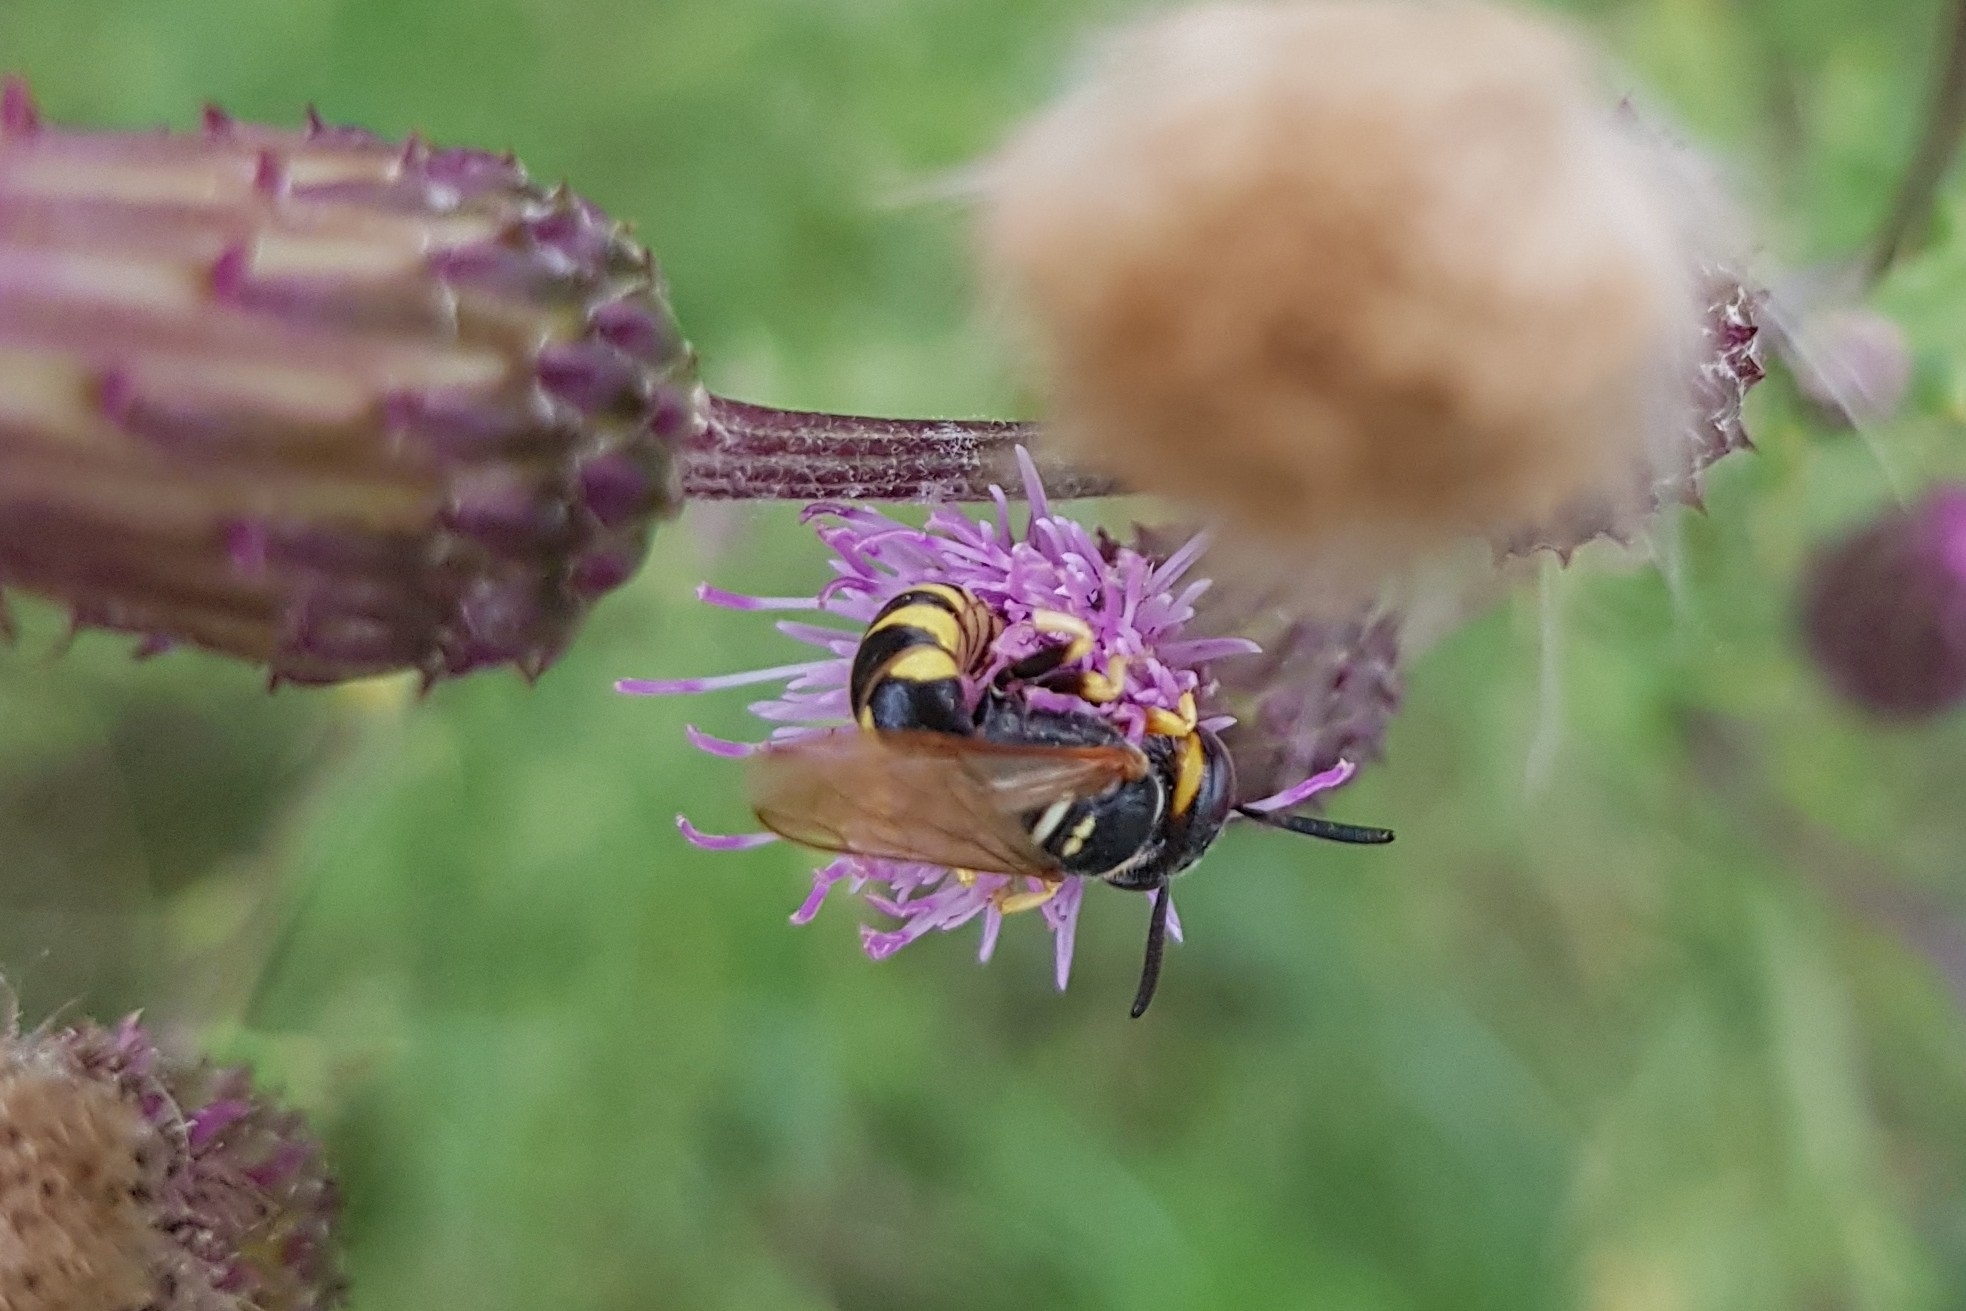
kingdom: Animalia
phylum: Arthropoda
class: Insecta
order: Hymenoptera
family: Crabronidae
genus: Philanthus
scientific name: Philanthus triangulum
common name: Bee wolf
